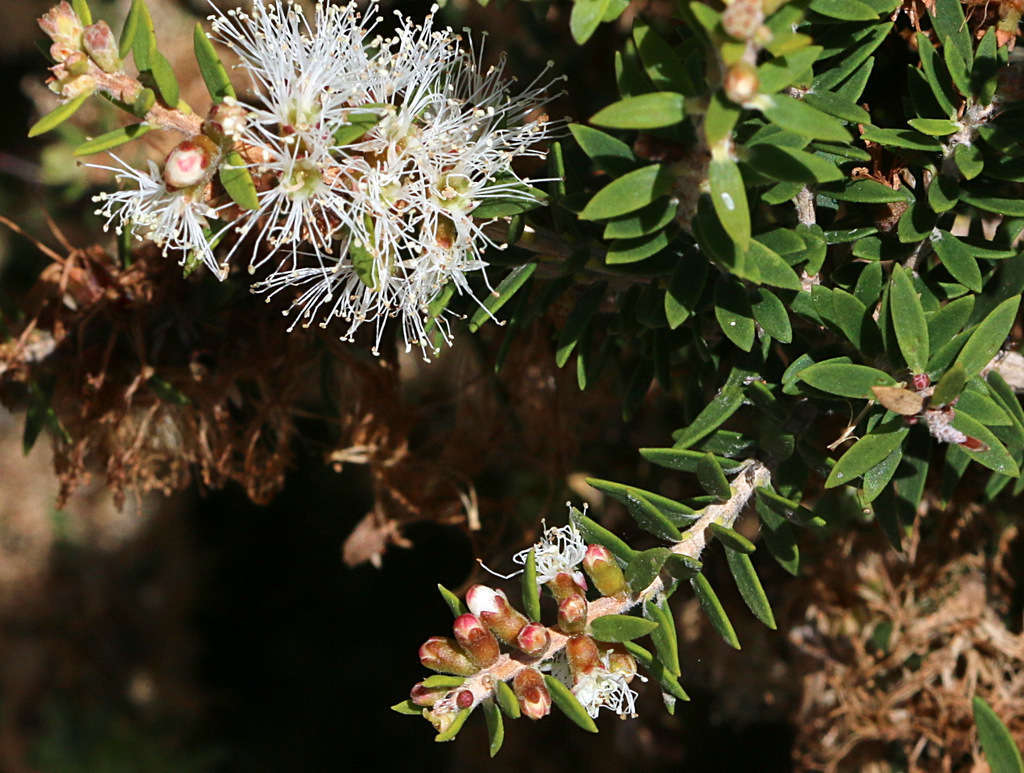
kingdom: Plantae
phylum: Tracheophyta
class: Magnoliopsida
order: Myrtales
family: Myrtaceae
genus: Melaleuca
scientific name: Melaleuca lanceolata
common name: Rottnest island teatree
